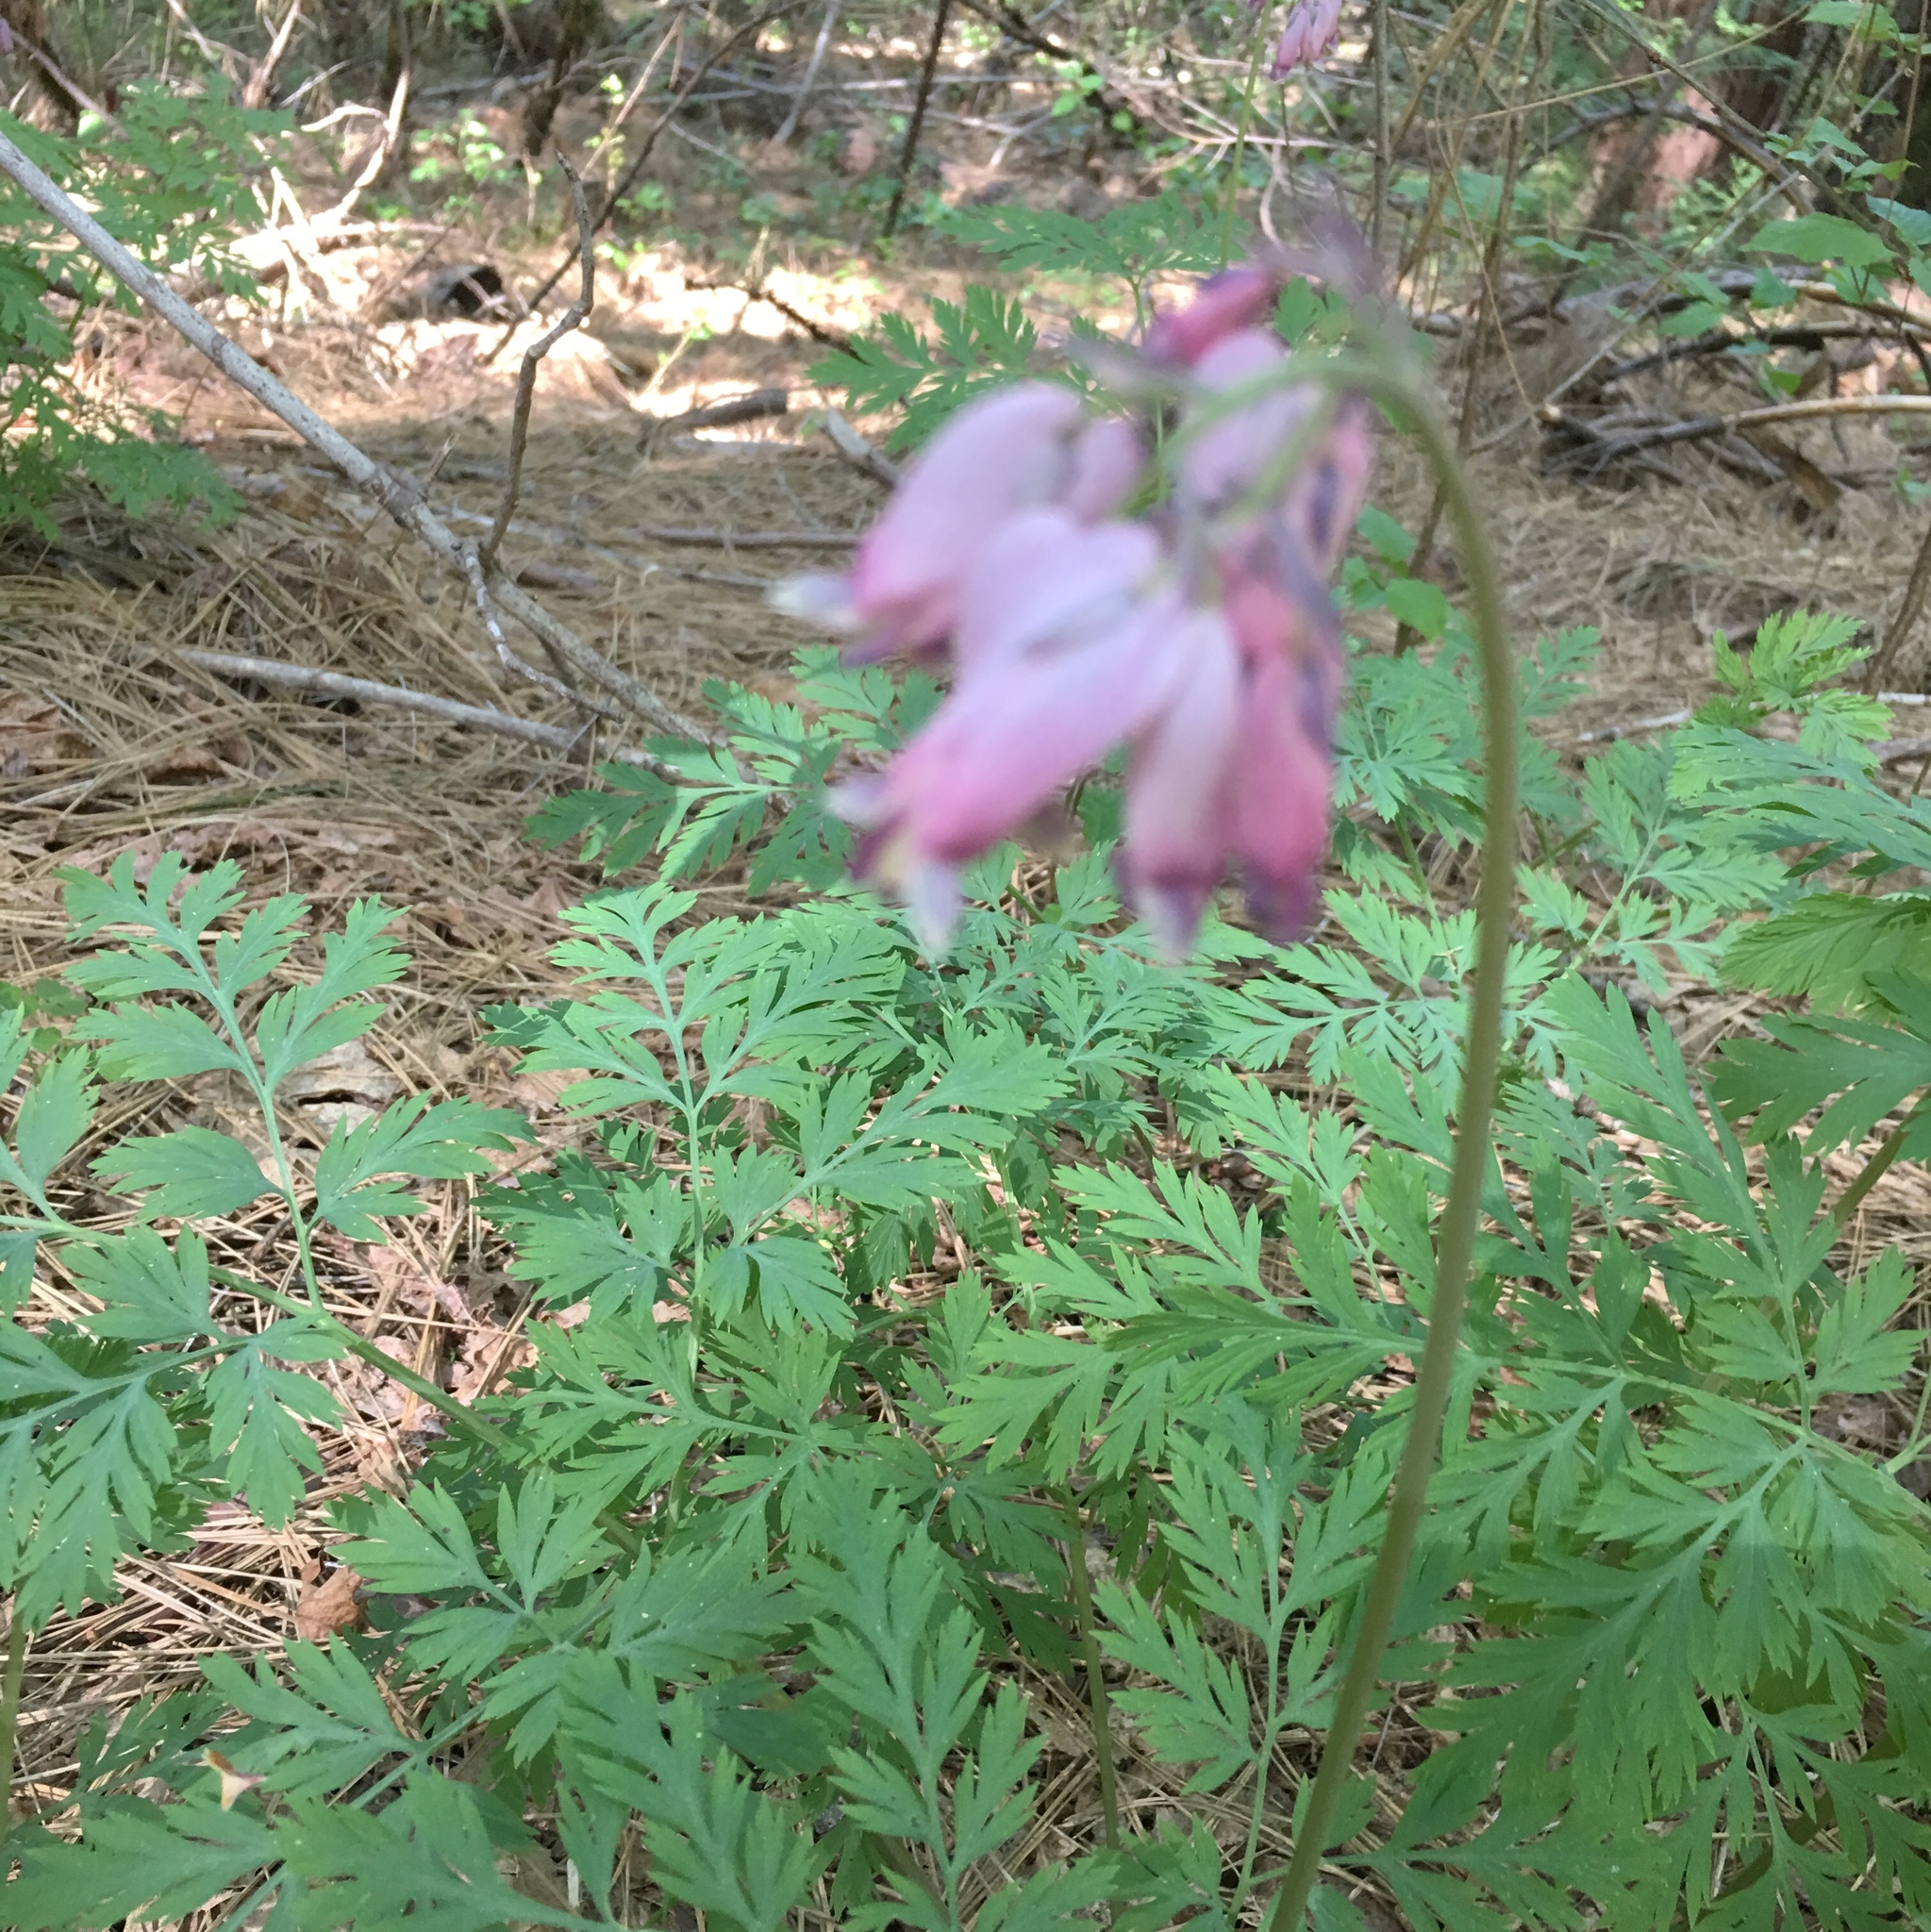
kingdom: Plantae
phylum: Tracheophyta
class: Magnoliopsida
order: Ranunculales
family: Papaveraceae
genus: Dicentra
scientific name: Dicentra formosa
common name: Bleeding-heart
